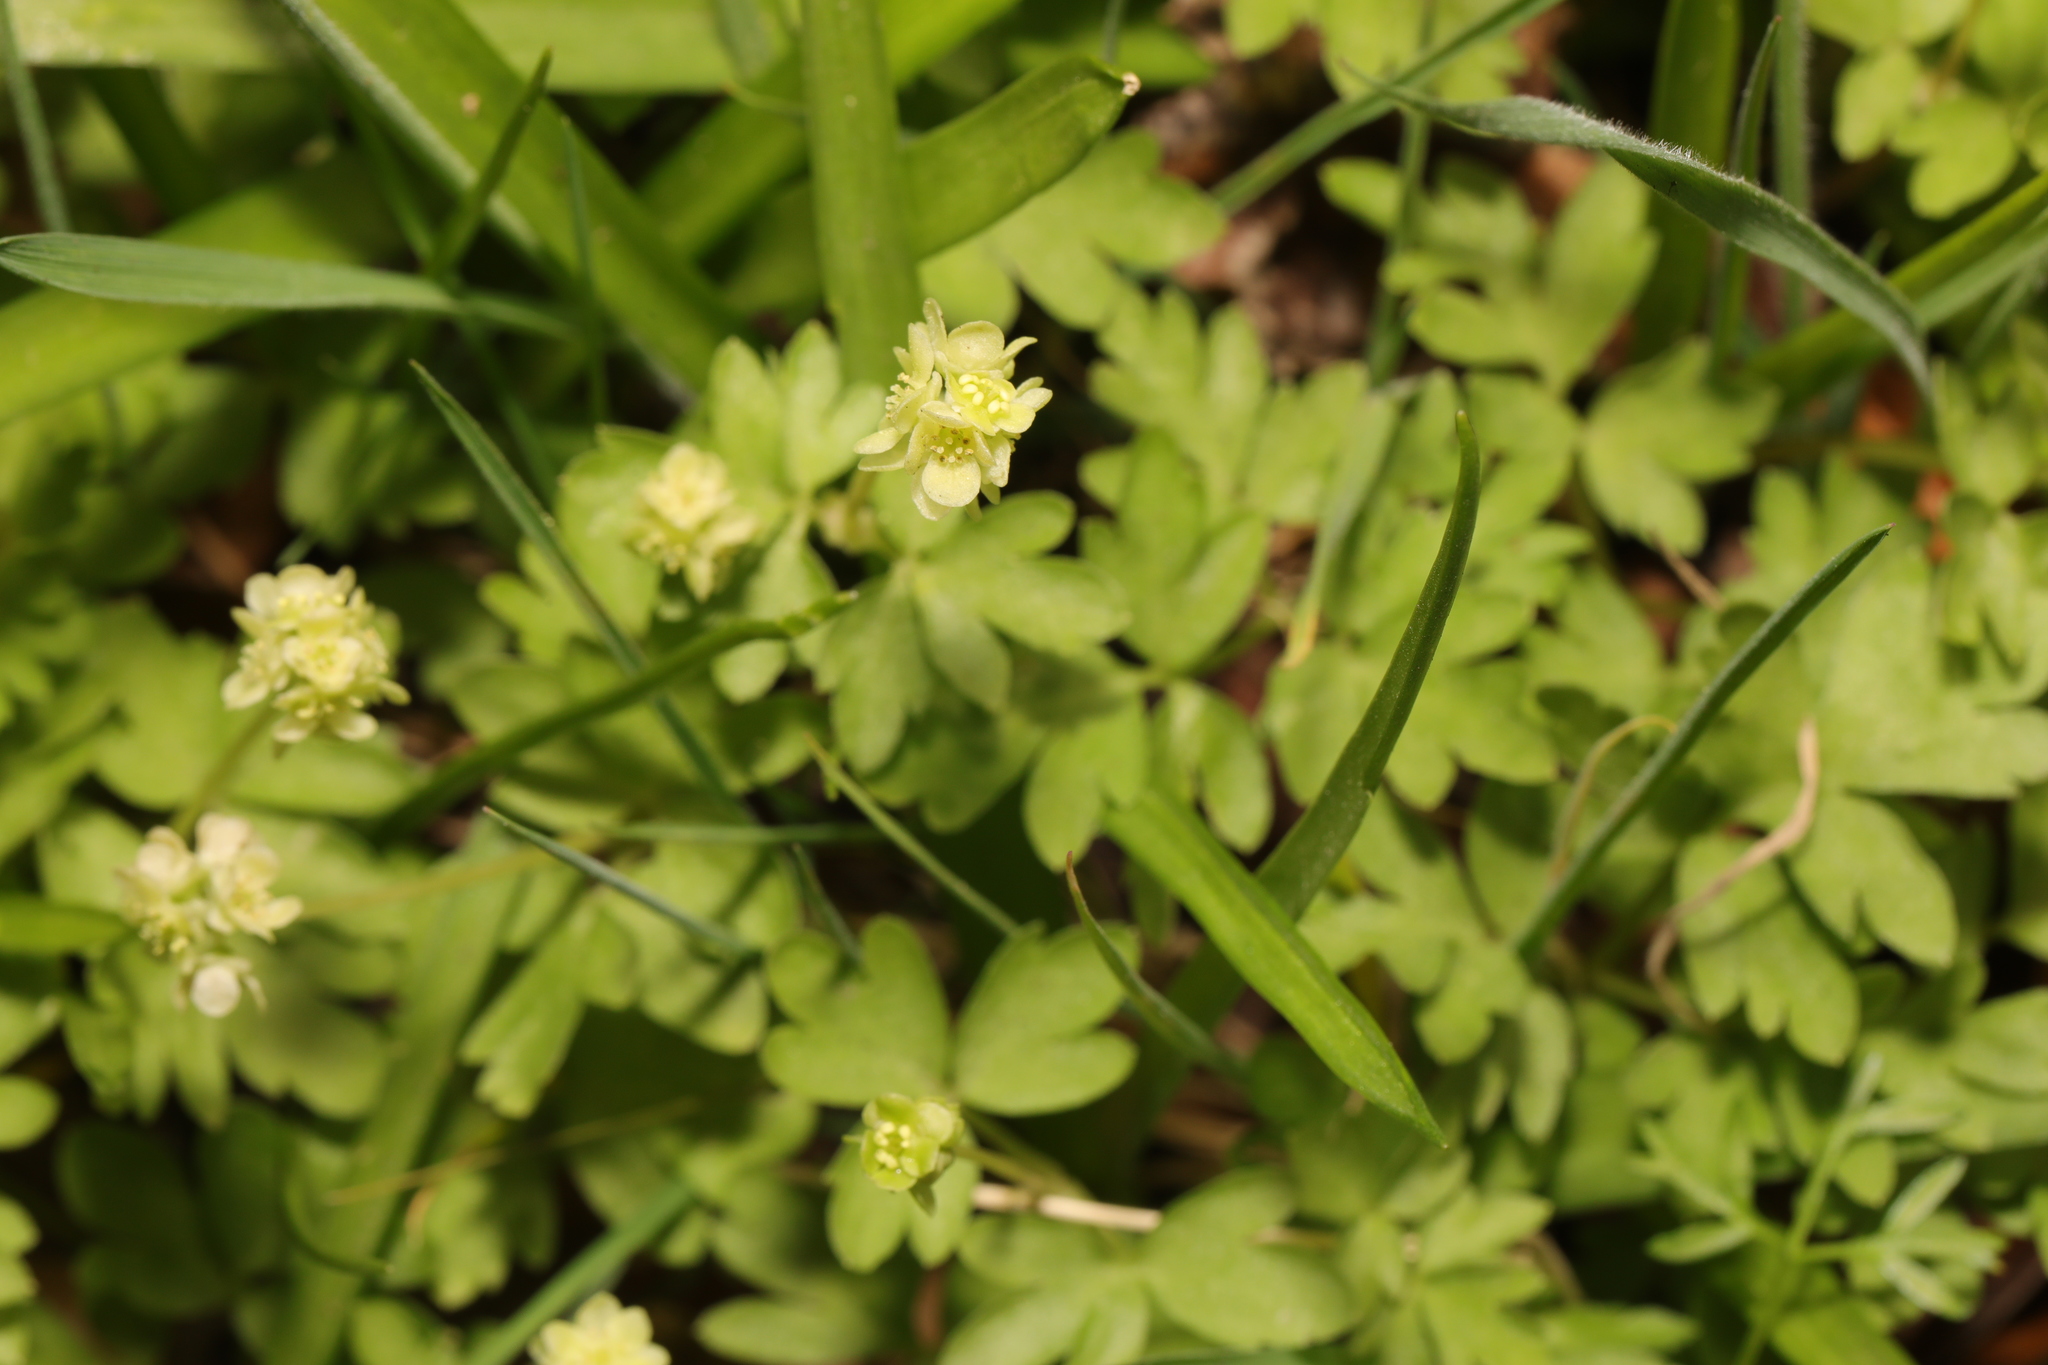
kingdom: Plantae
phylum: Tracheophyta
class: Magnoliopsida
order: Dipsacales
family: Viburnaceae
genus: Adoxa
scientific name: Adoxa moschatellina
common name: Moschatel
